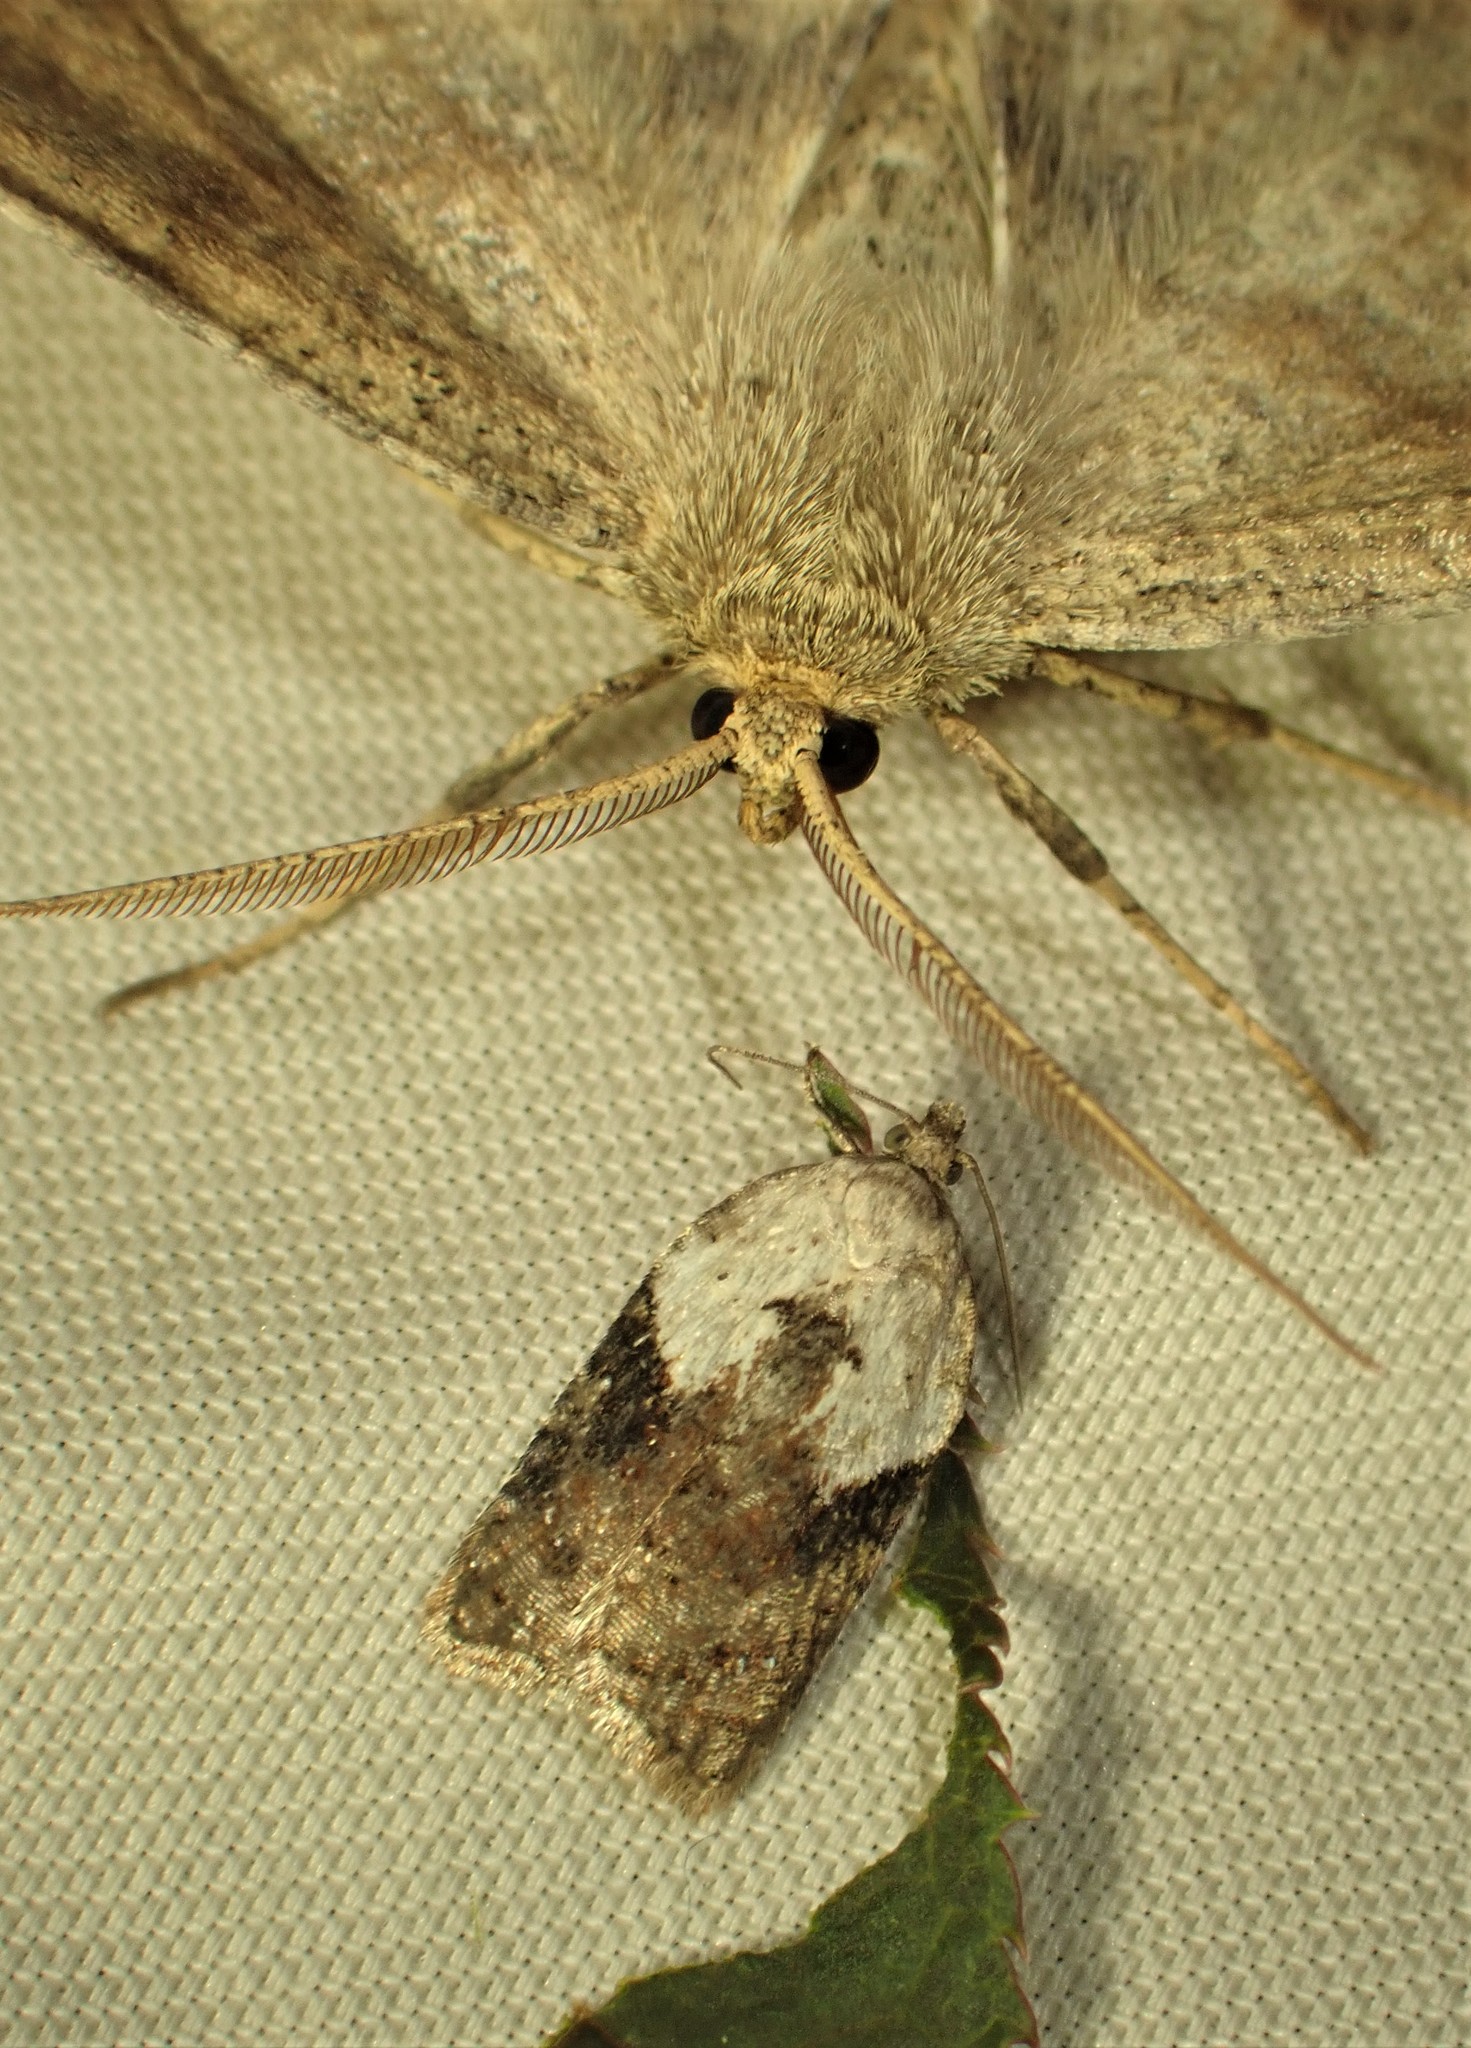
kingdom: Animalia
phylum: Arthropoda
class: Insecta
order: Lepidoptera
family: Tortricidae
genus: Acleris
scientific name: Acleris braunana
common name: Alder leafroller
